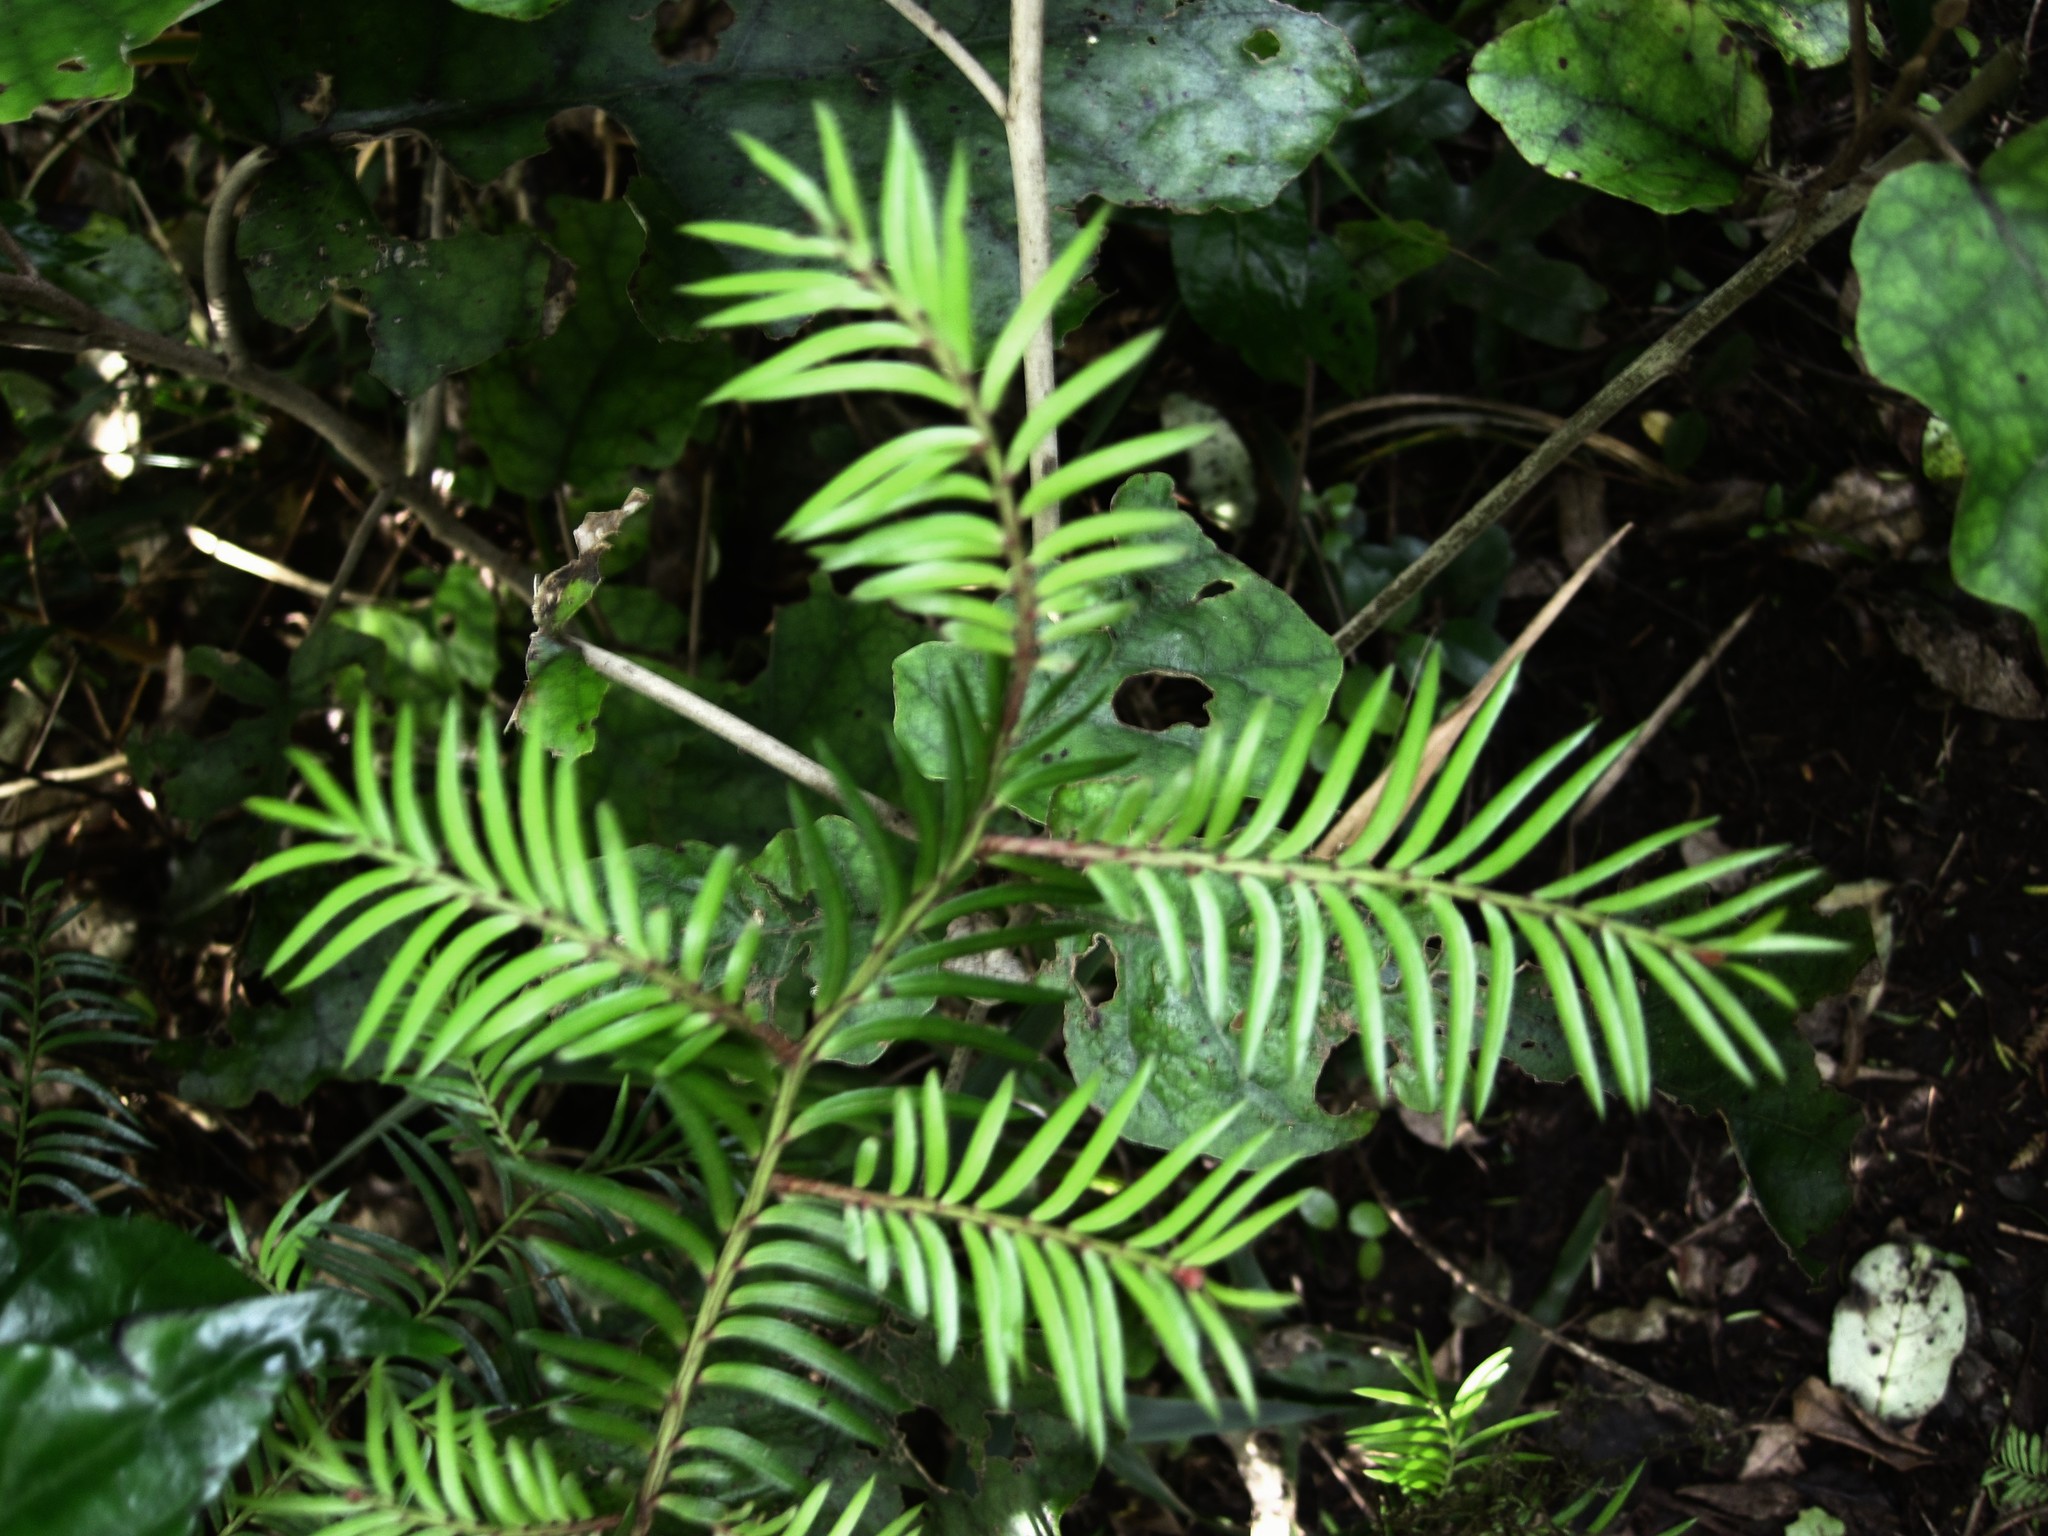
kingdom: Plantae
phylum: Tracheophyta
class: Pinopsida
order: Pinales
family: Podocarpaceae
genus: Prumnopitys
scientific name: Prumnopitys ferruginea
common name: Brown pine
